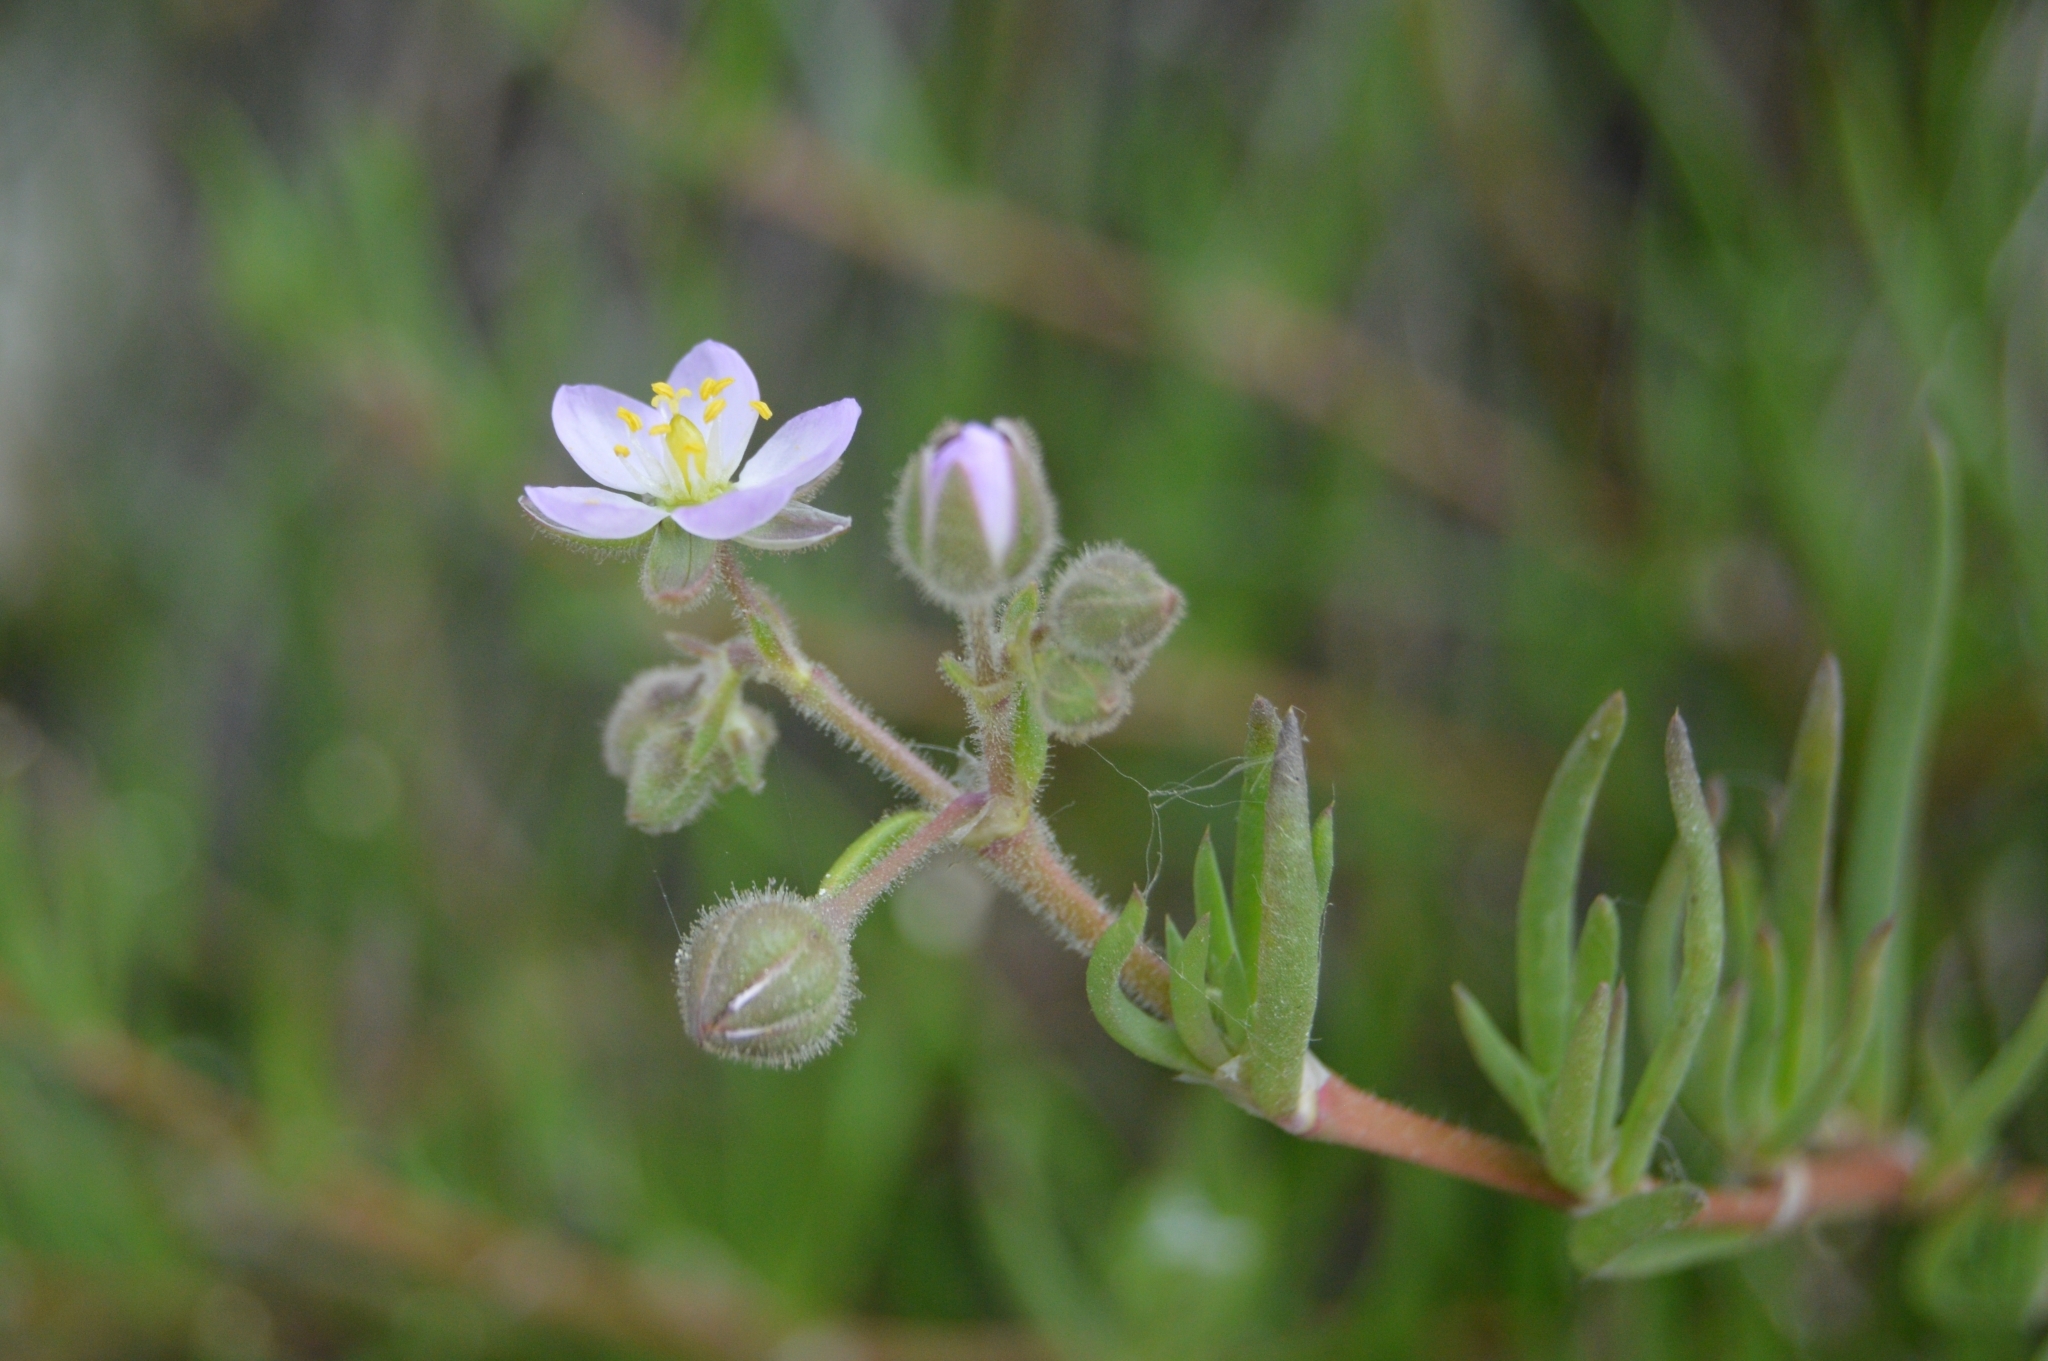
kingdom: Plantae
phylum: Tracheophyta
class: Magnoliopsida
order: Caryophyllales
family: Caryophyllaceae
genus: Spergularia
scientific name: Spergularia media
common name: Greater sea-spurrey
